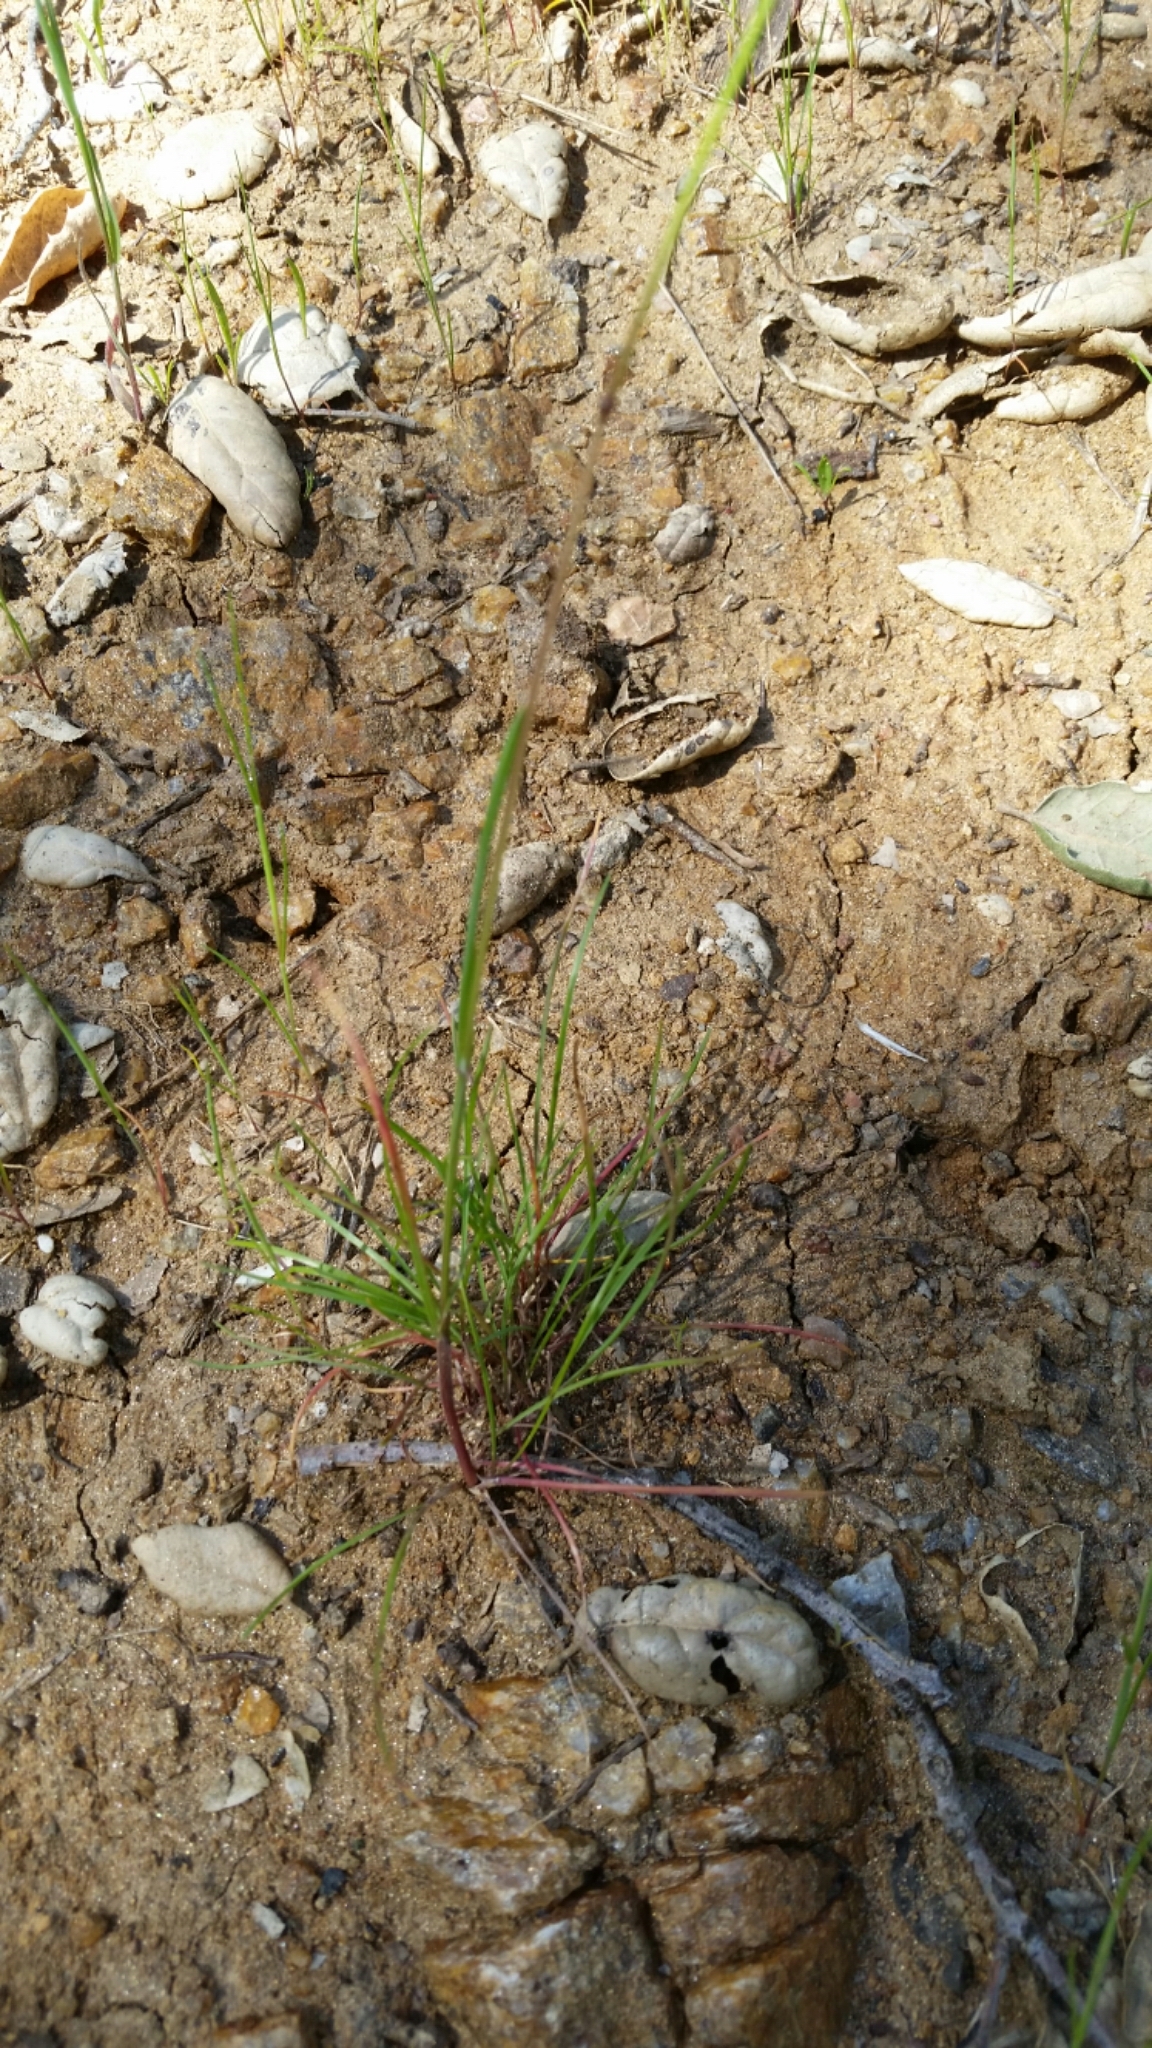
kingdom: Plantae
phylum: Tracheophyta
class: Liliopsida
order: Poales
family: Poaceae
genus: Poa
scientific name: Poa bulbosa
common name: Bulbous bluegrass
